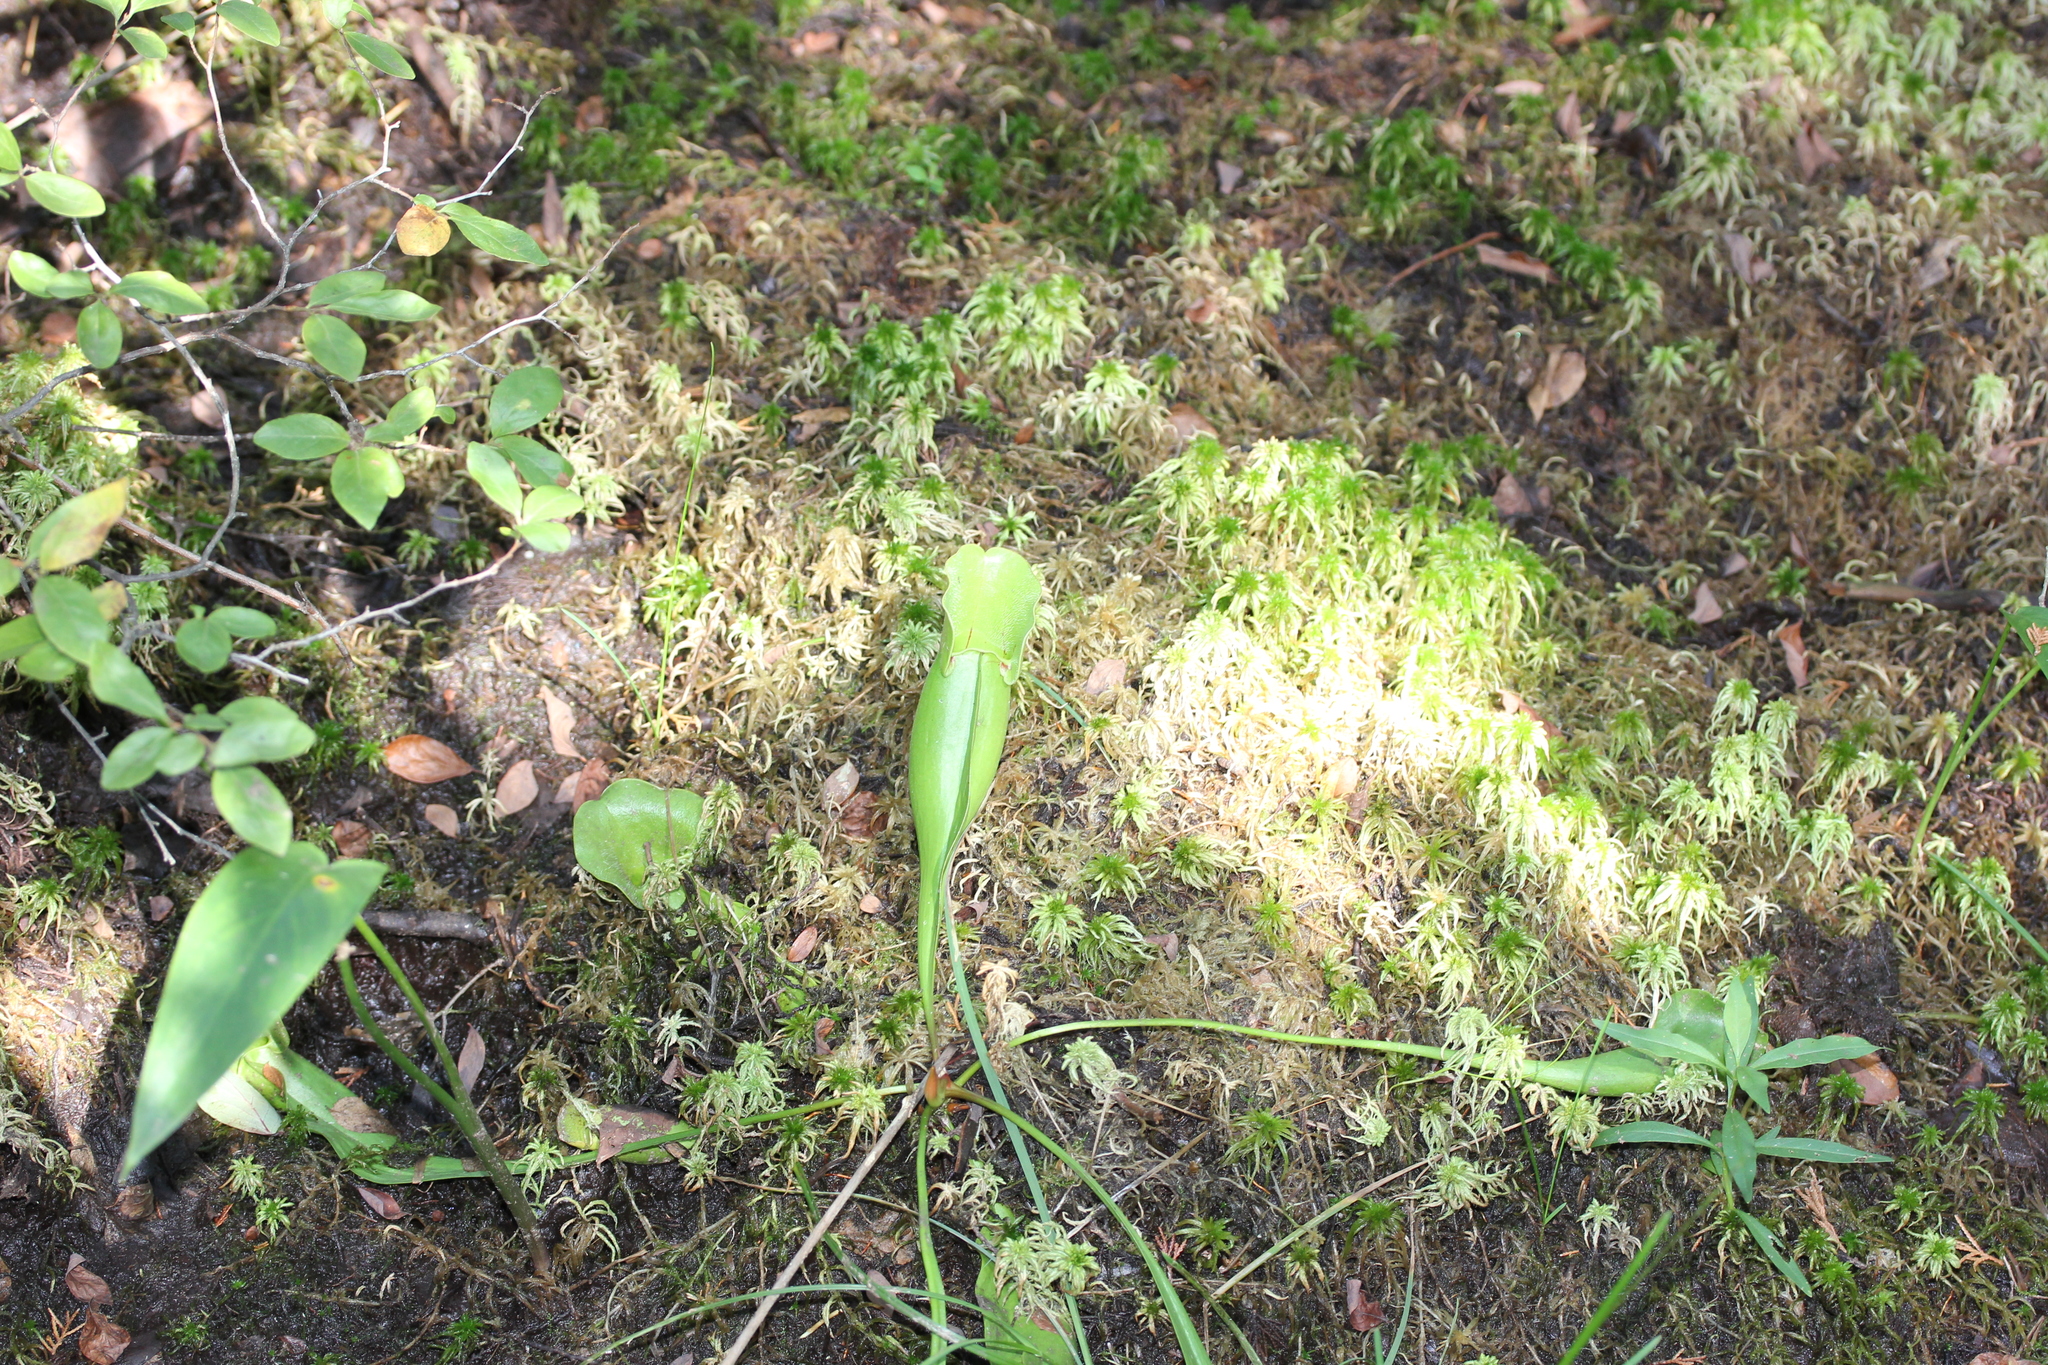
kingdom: Plantae
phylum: Tracheophyta
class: Magnoliopsida
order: Ericales
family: Sarraceniaceae
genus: Sarracenia
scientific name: Sarracenia purpurea
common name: Pitcherplant
